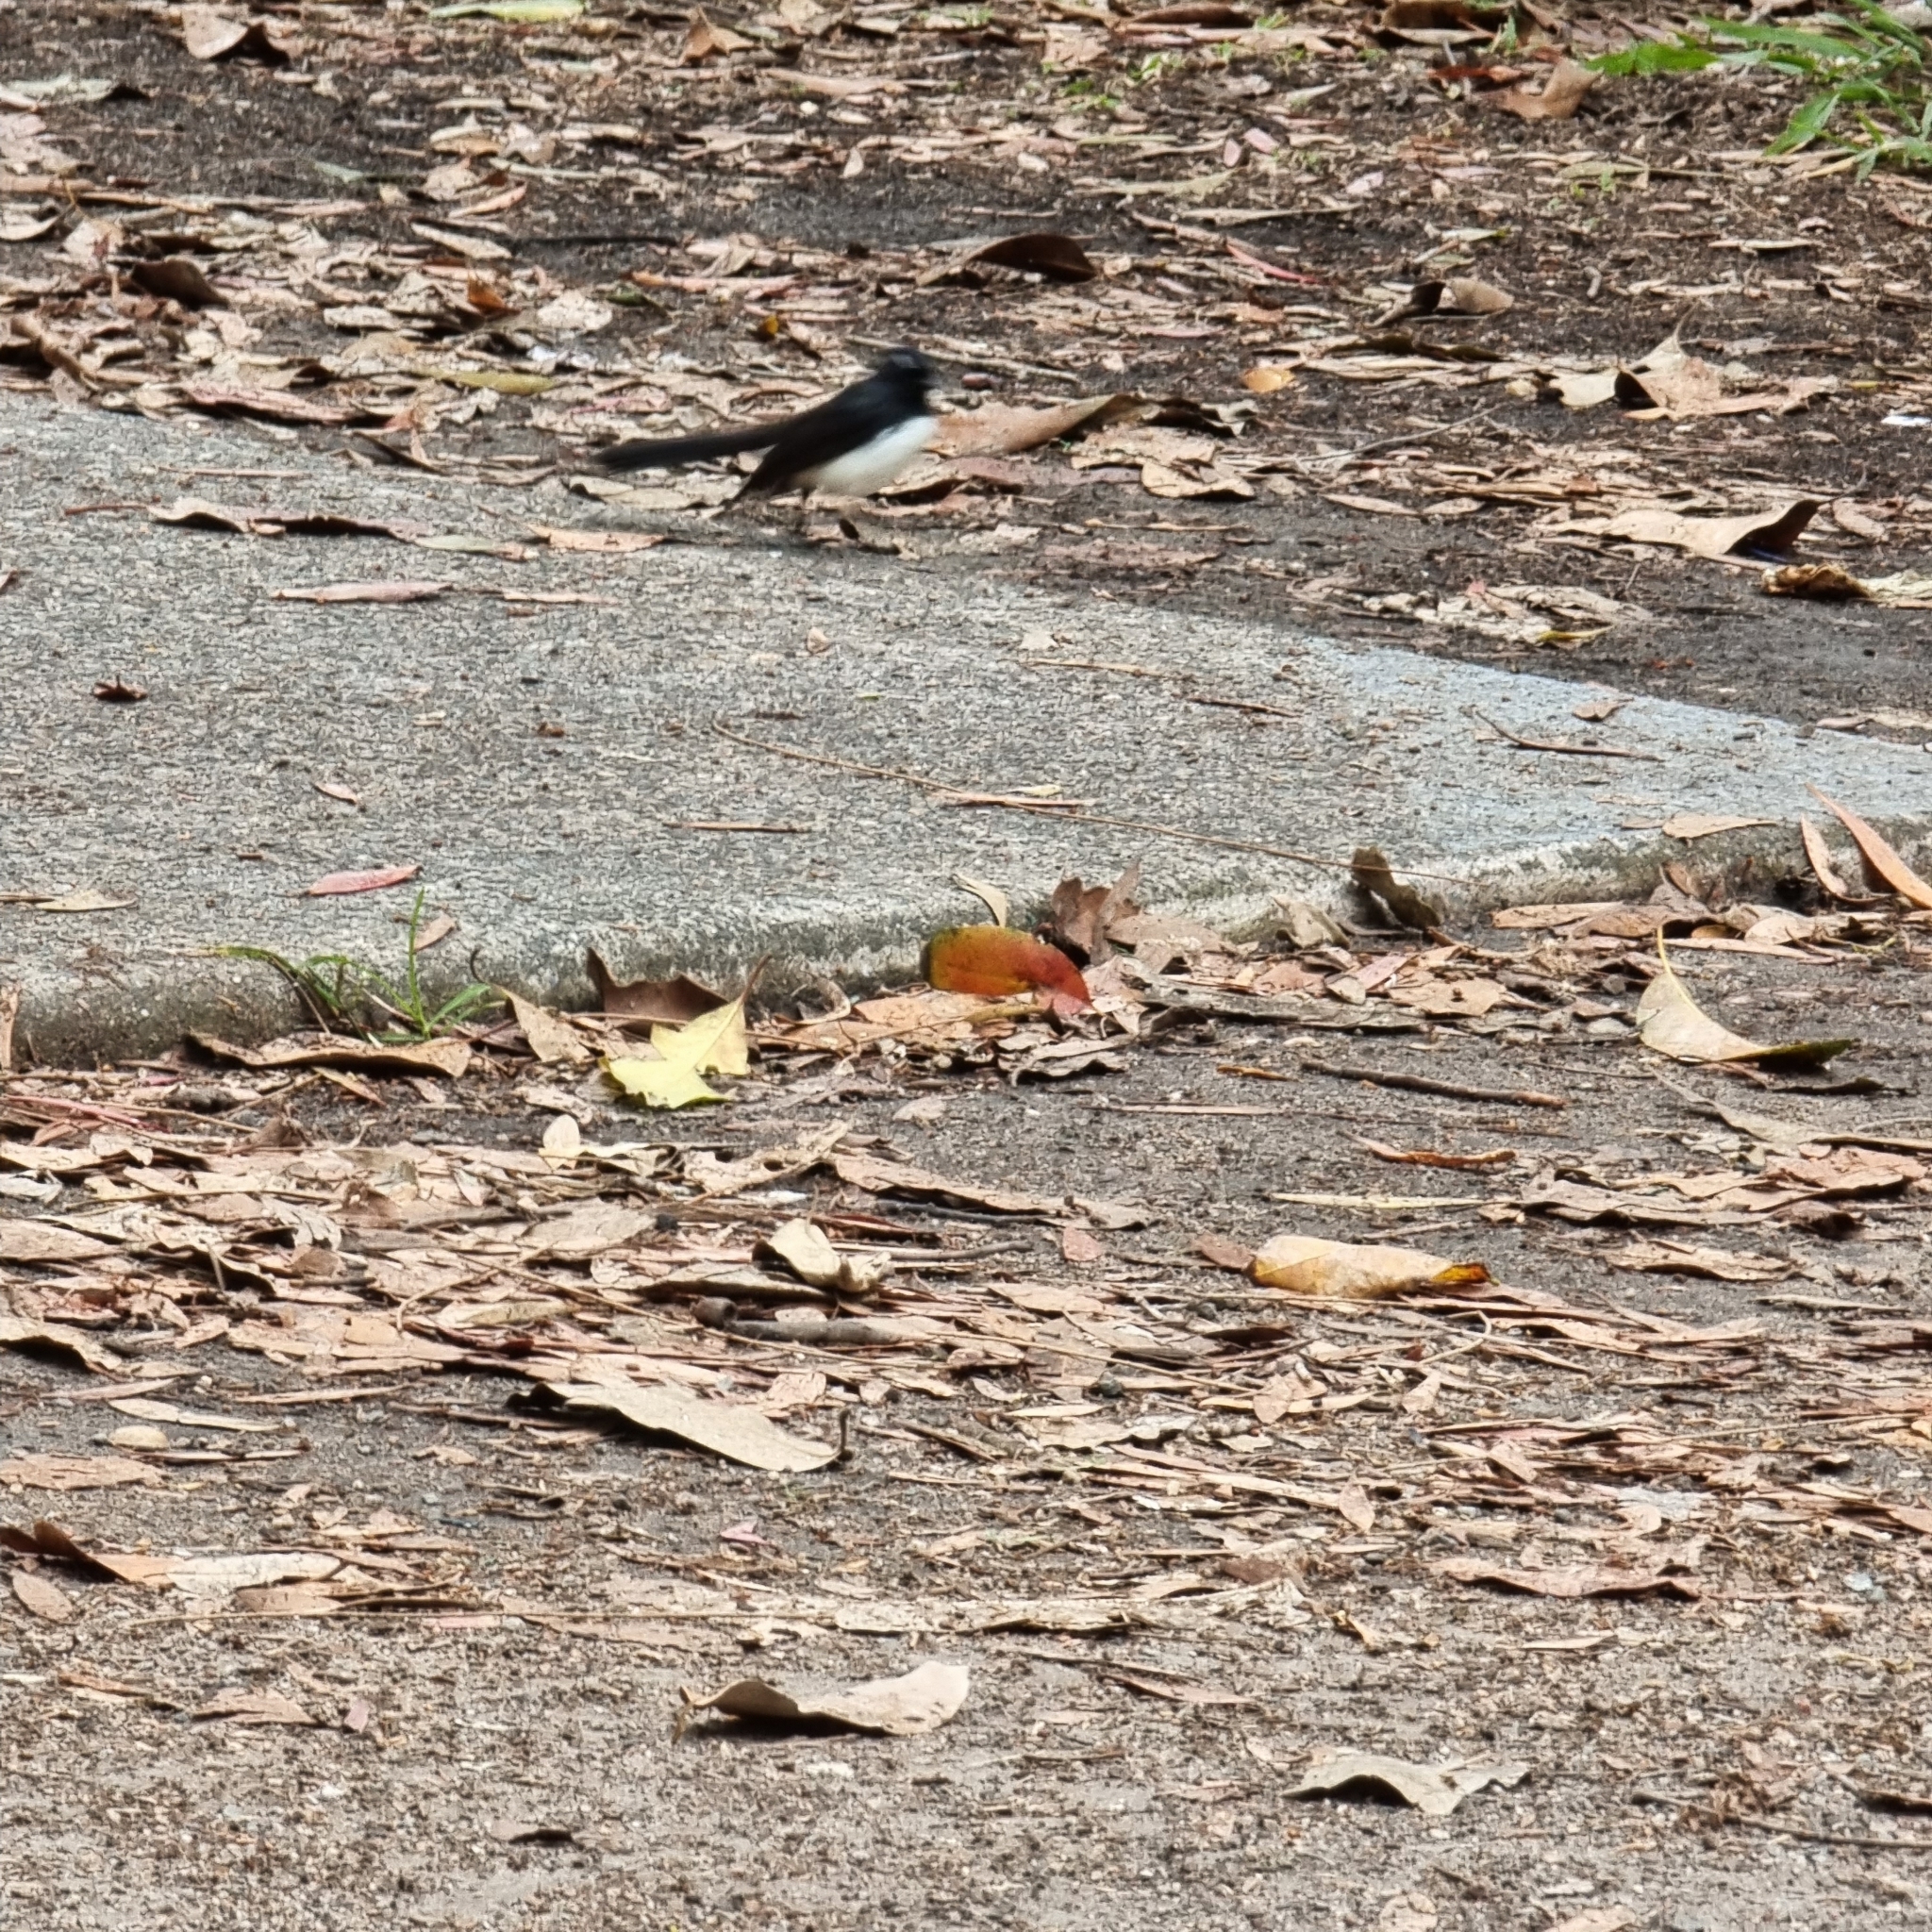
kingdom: Animalia
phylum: Chordata
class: Aves
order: Passeriformes
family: Rhipiduridae
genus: Rhipidura
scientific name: Rhipidura leucophrys
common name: Willie wagtail
